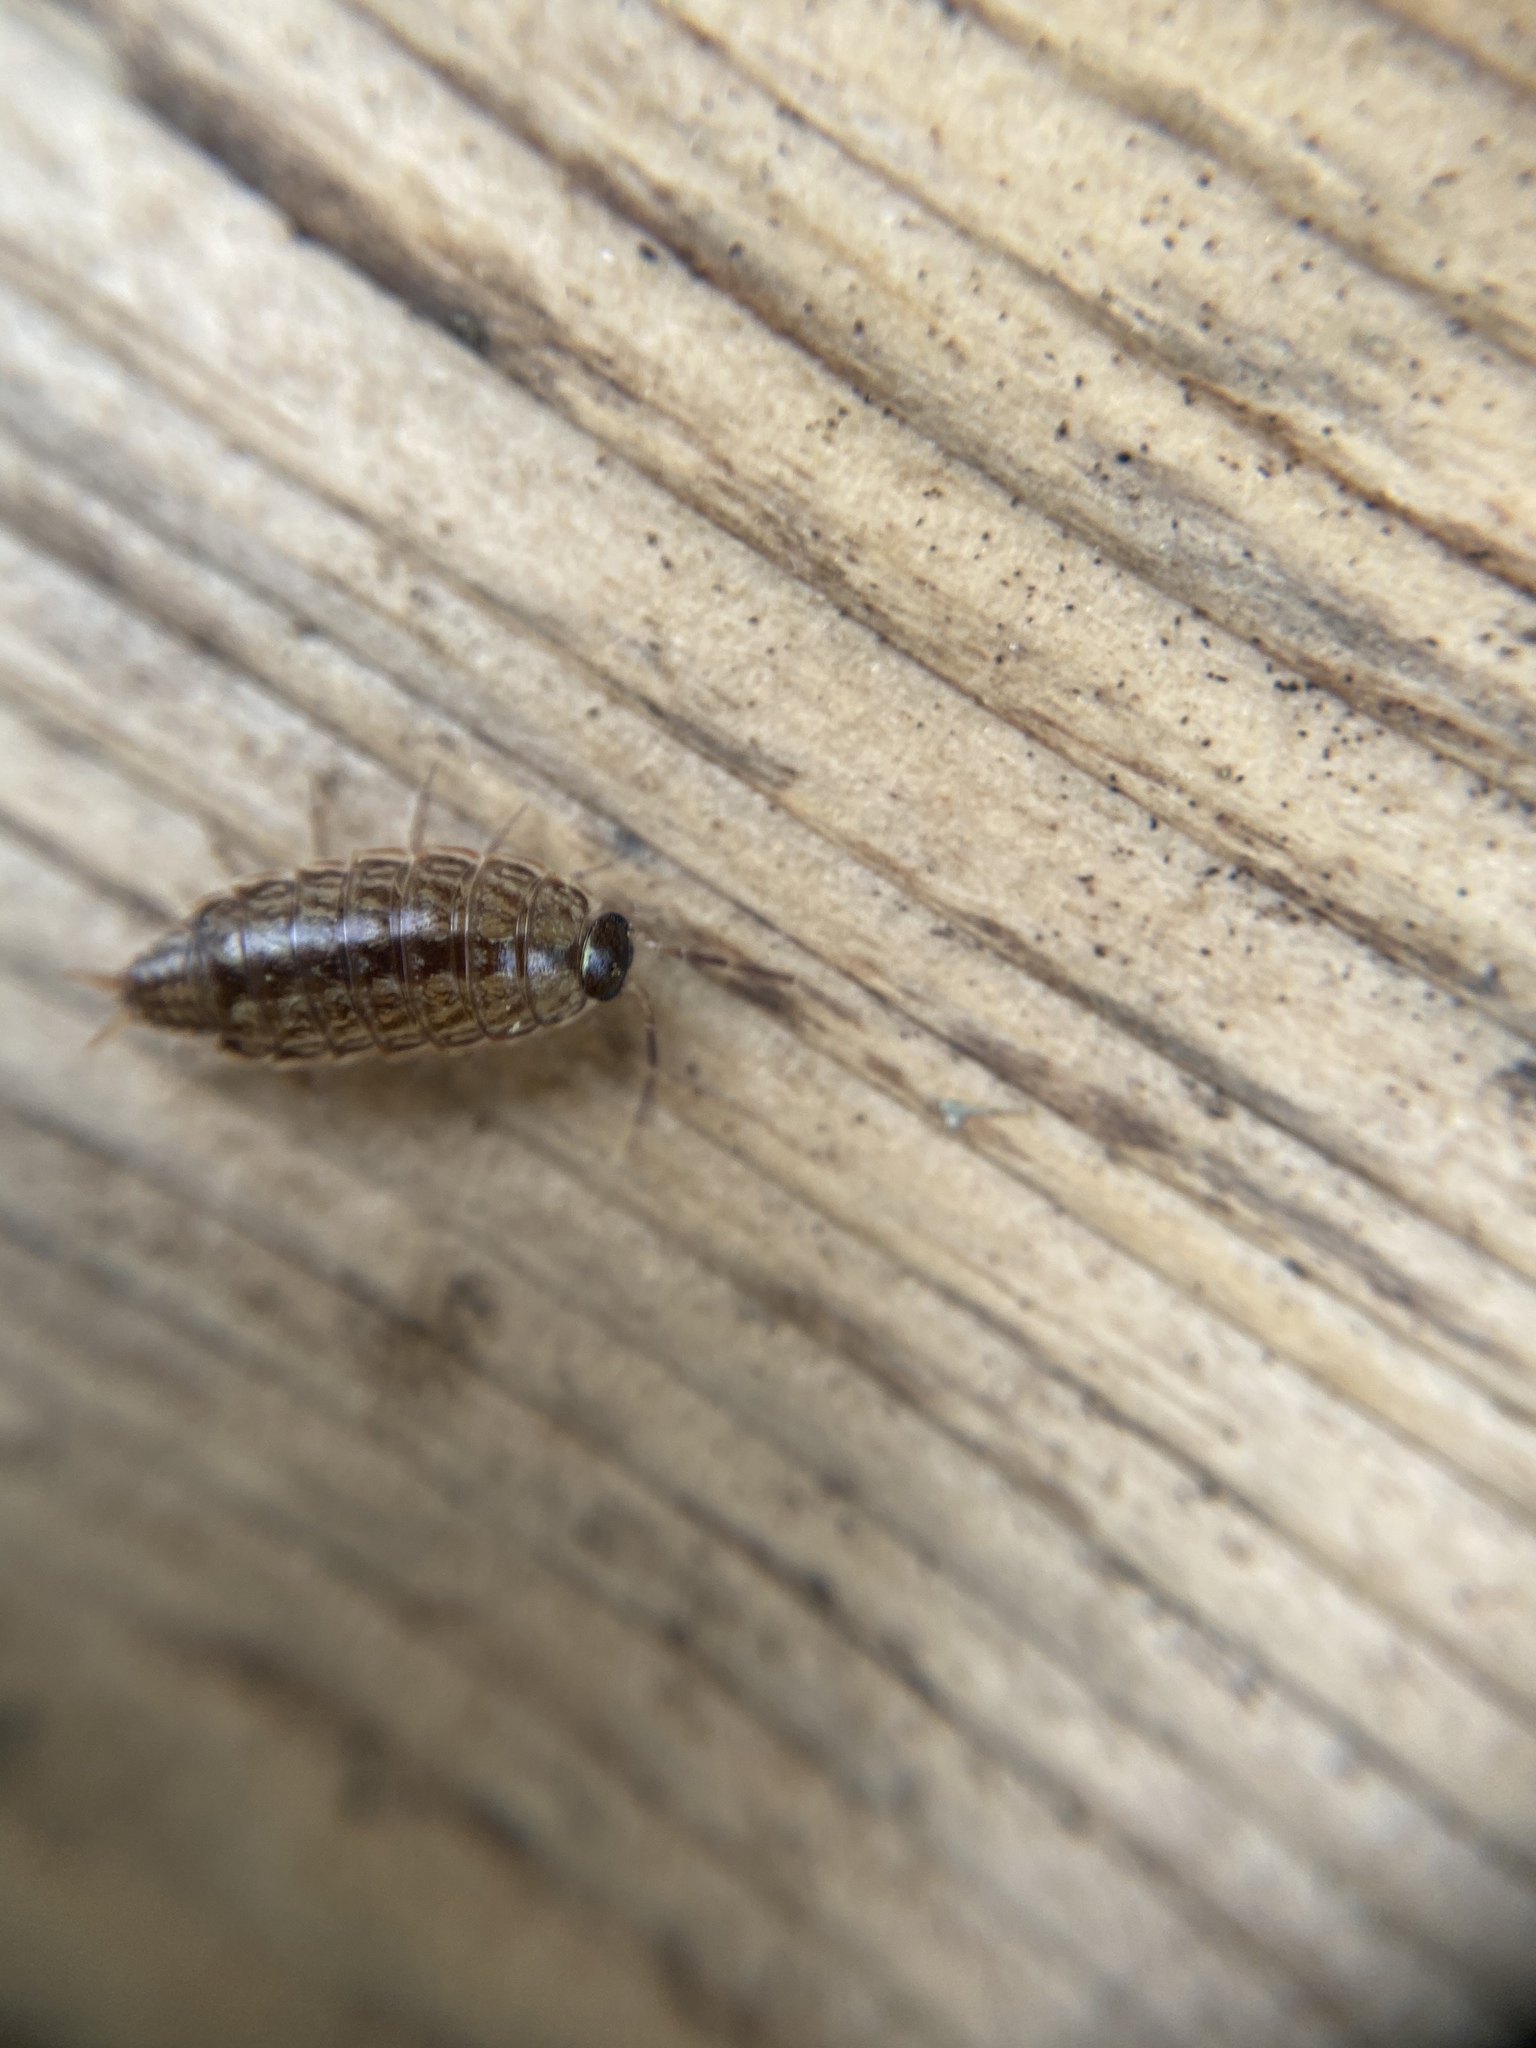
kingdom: Animalia
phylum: Arthropoda
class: Malacostraca
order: Isopoda
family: Philosciidae
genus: Philoscia
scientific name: Philoscia muscorum
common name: Common striped woodlouse
